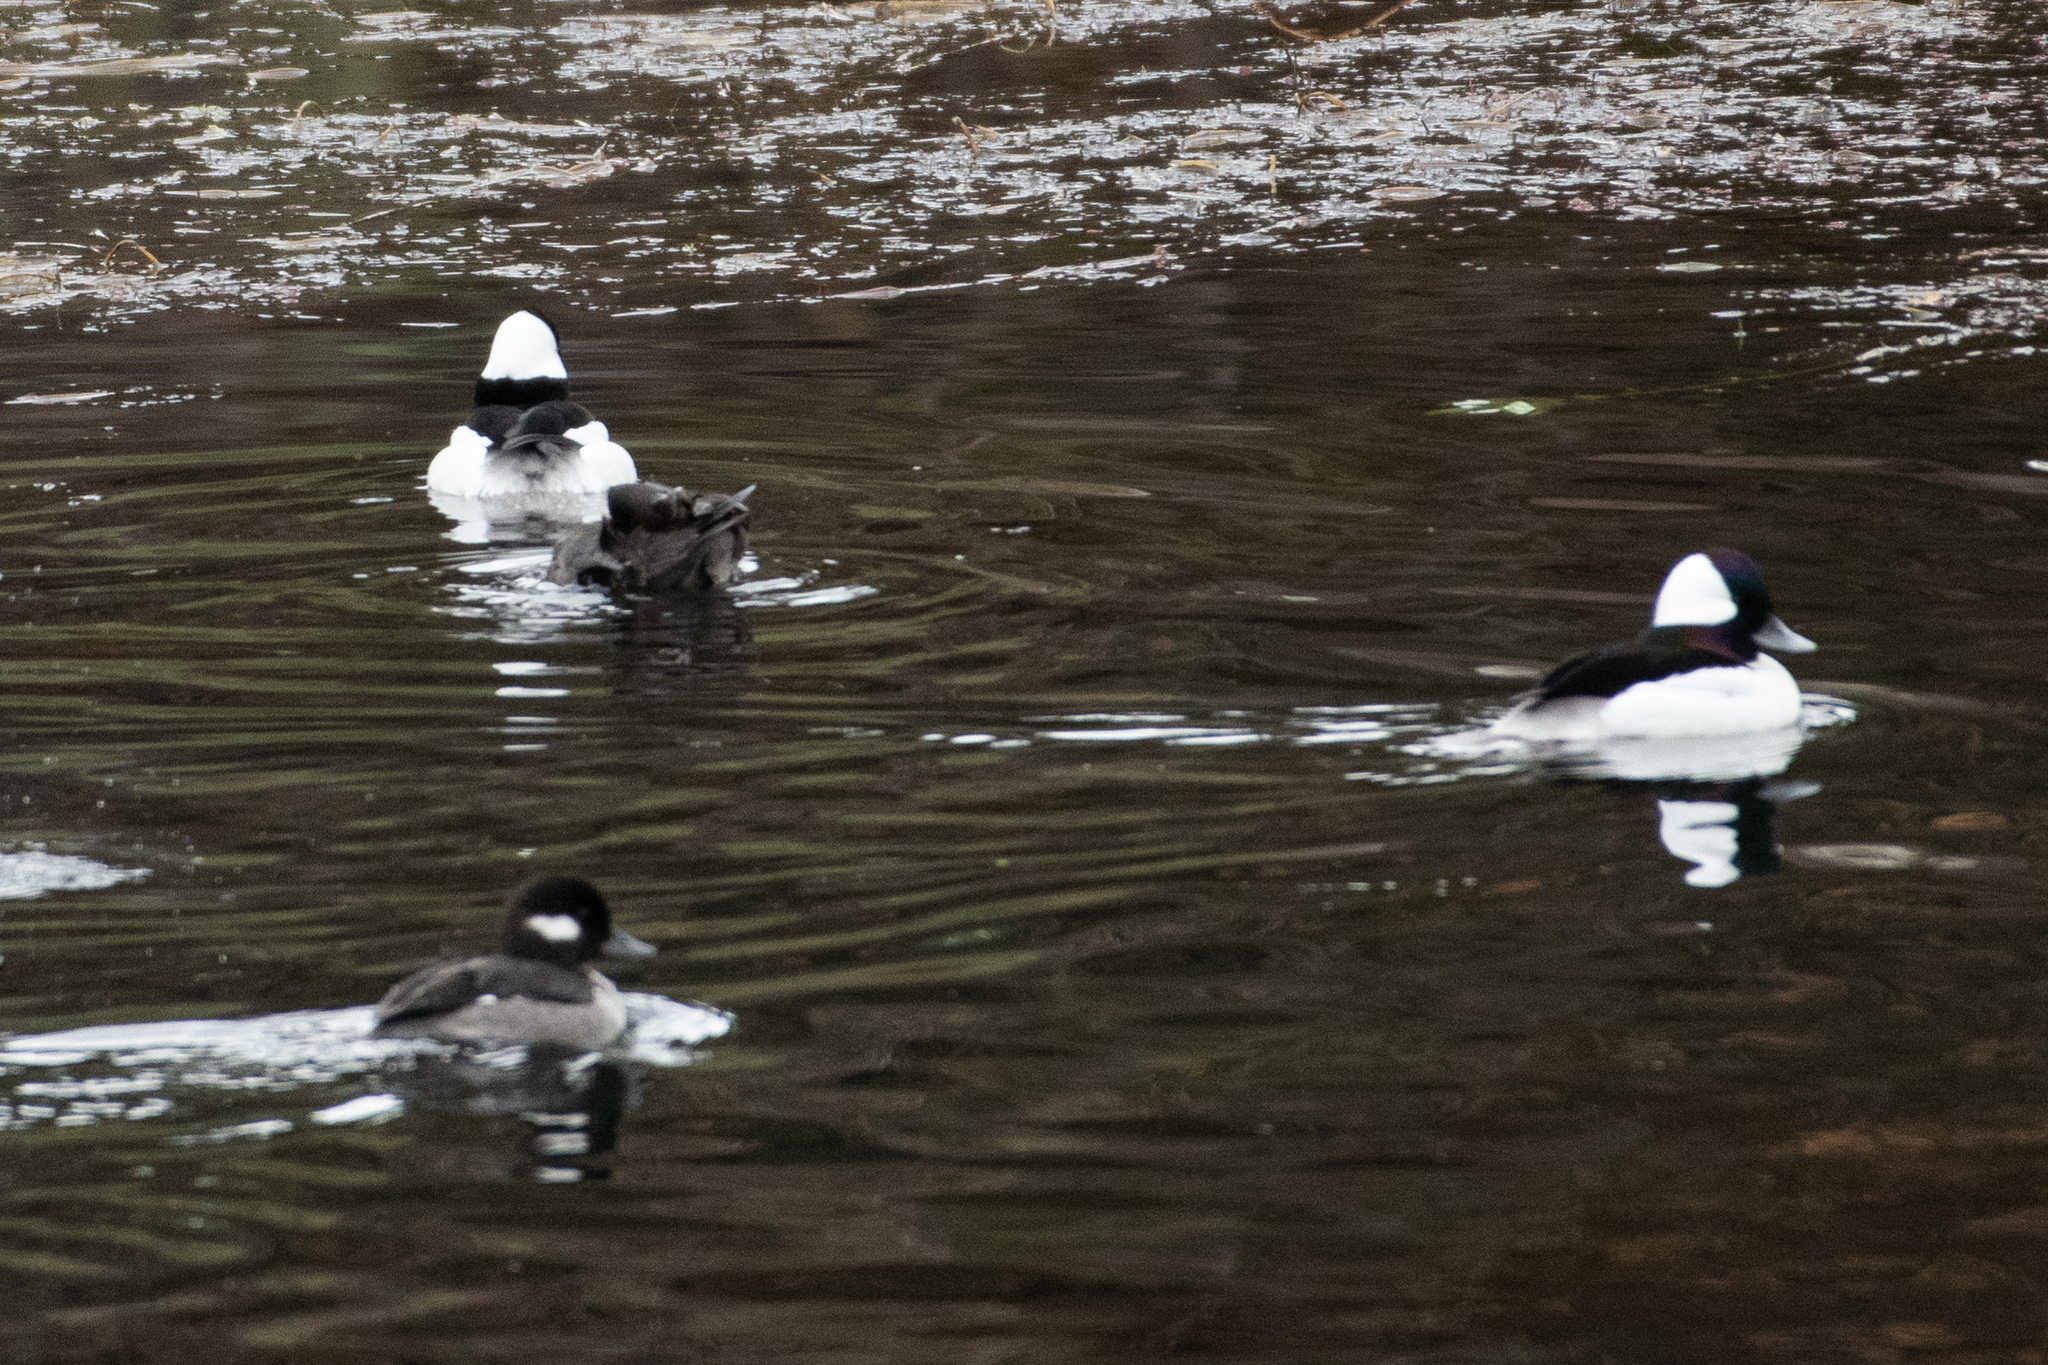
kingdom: Animalia
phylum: Chordata
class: Aves
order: Anseriformes
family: Anatidae
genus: Bucephala
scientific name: Bucephala albeola
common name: Bufflehead
